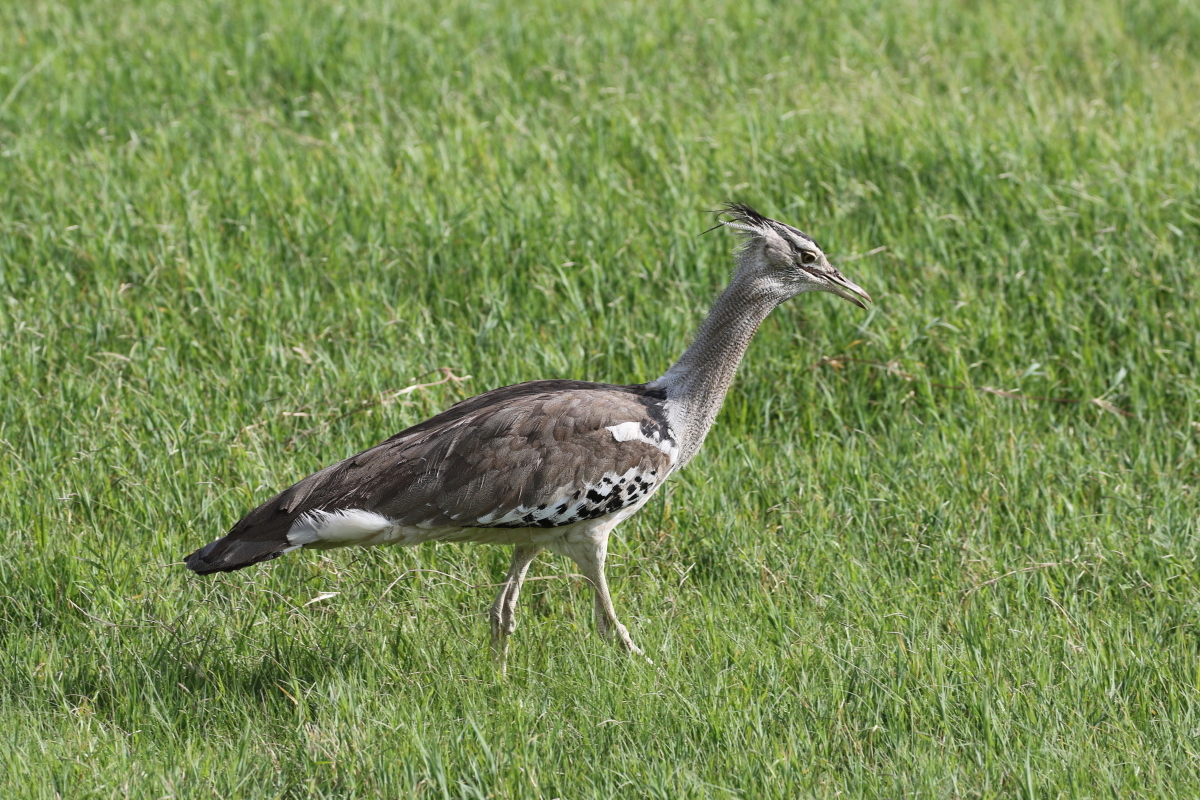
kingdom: Animalia
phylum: Chordata
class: Aves
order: Otidiformes
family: Otididae
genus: Ardeotis
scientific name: Ardeotis kori
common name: Kori bustard
